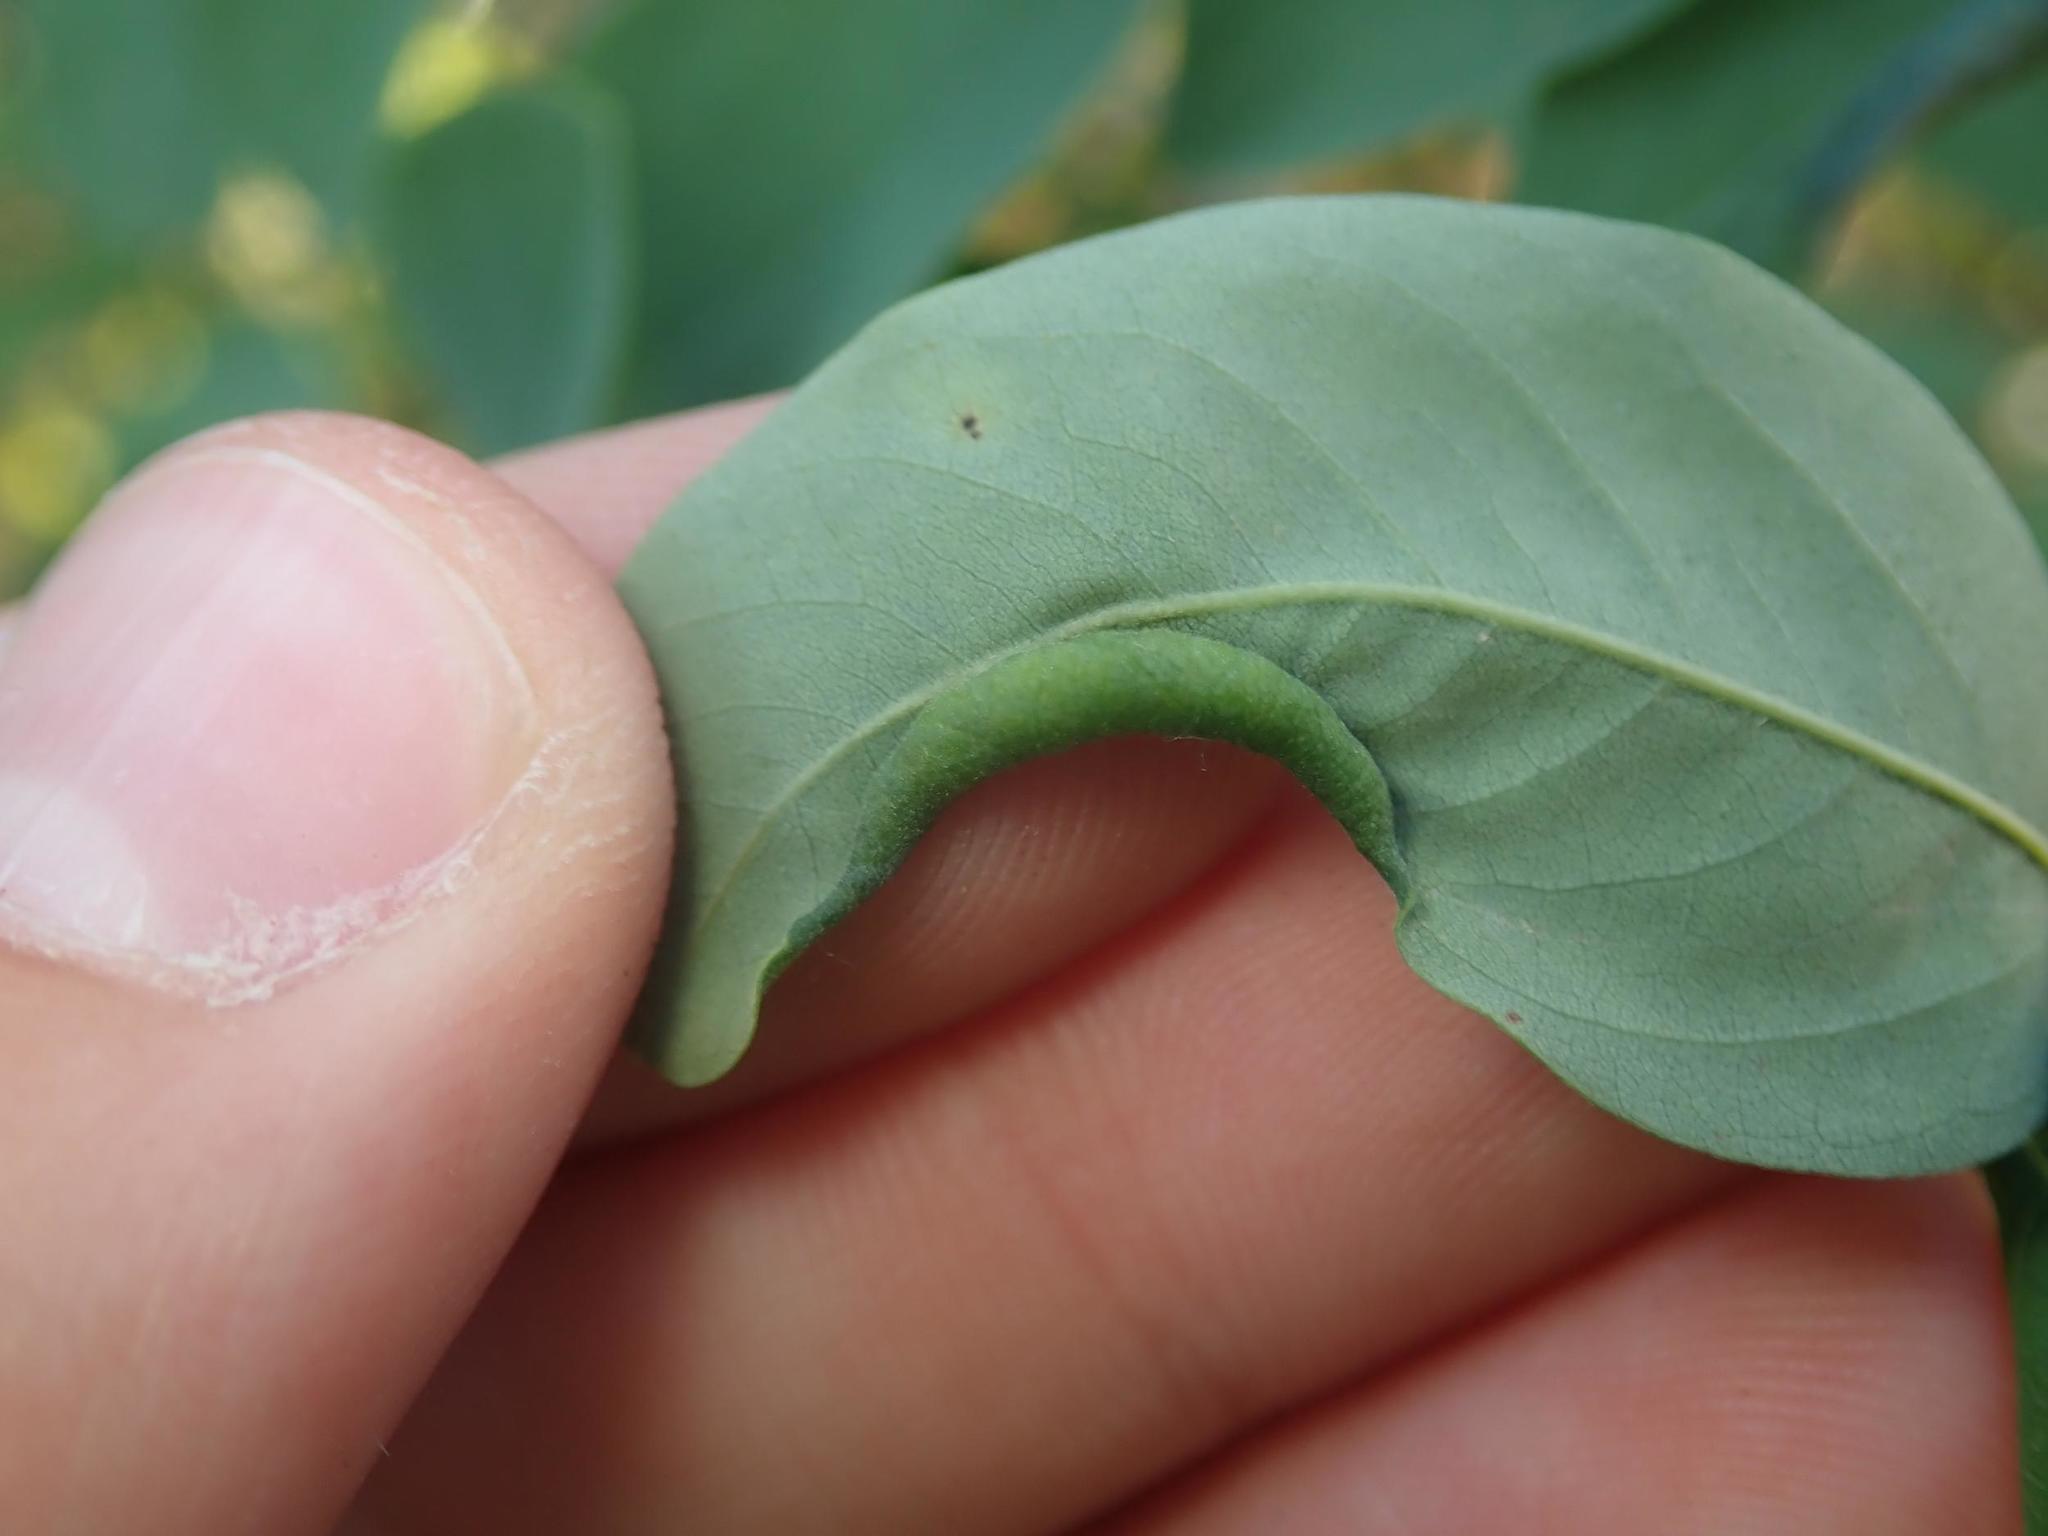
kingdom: Animalia
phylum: Arthropoda
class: Insecta
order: Diptera
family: Cecidomyiidae
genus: Obolodiplosis
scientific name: Obolodiplosis robiniae
